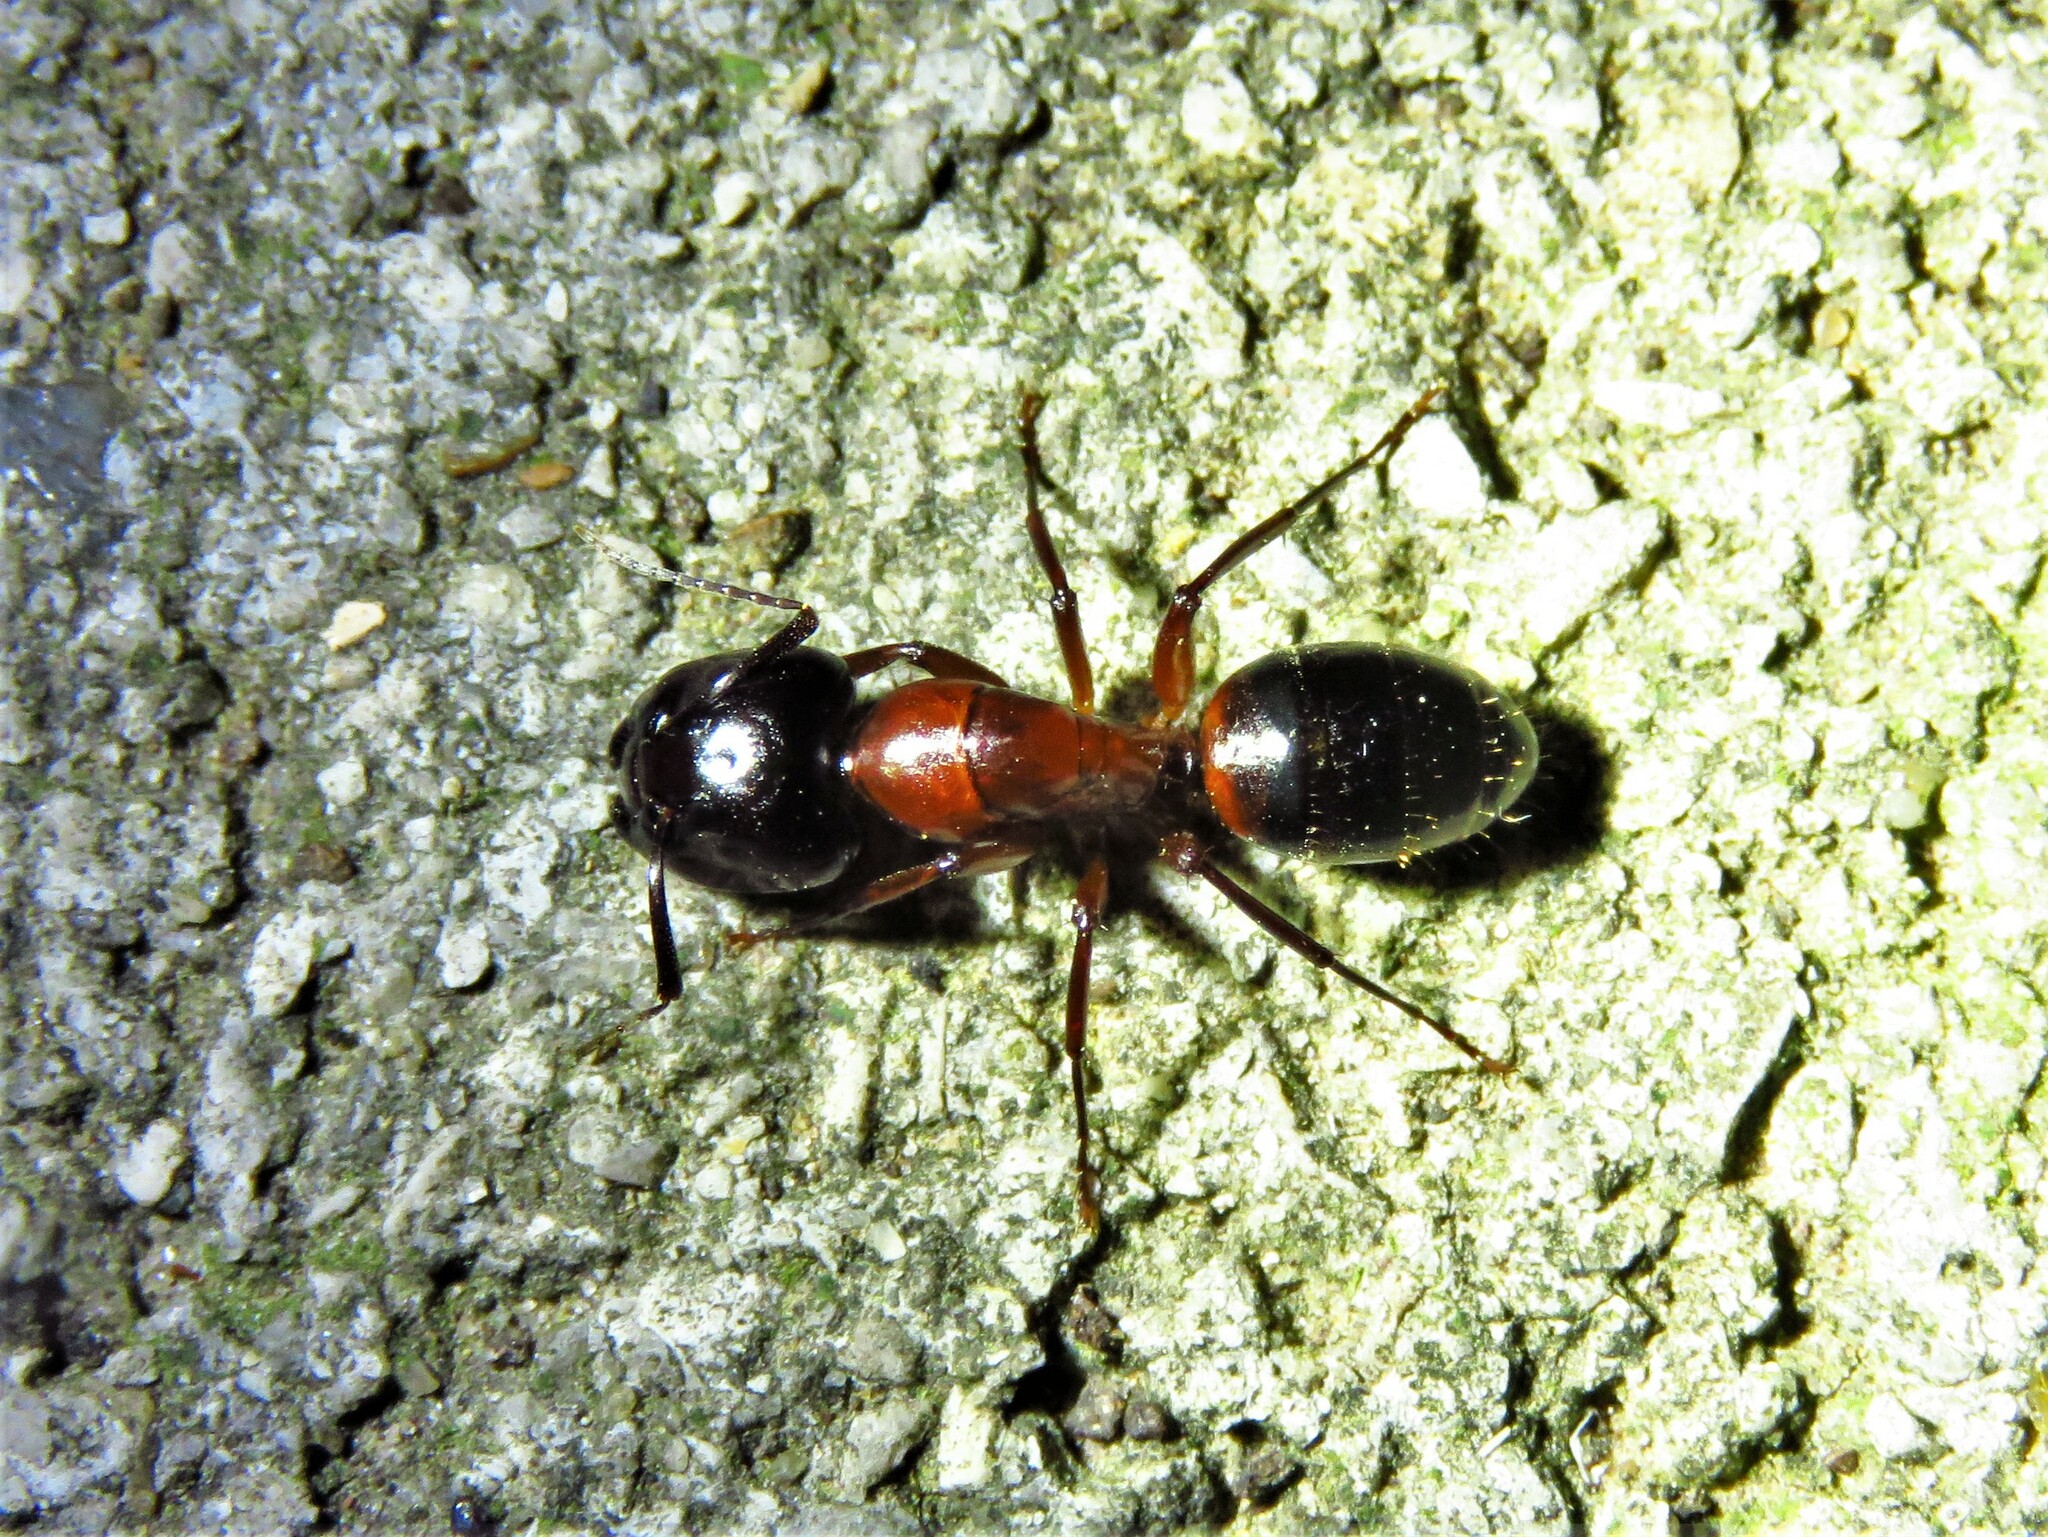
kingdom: Animalia
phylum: Arthropoda
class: Insecta
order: Hymenoptera
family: Formicidae
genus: Camponotus
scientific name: Camponotus texanus
